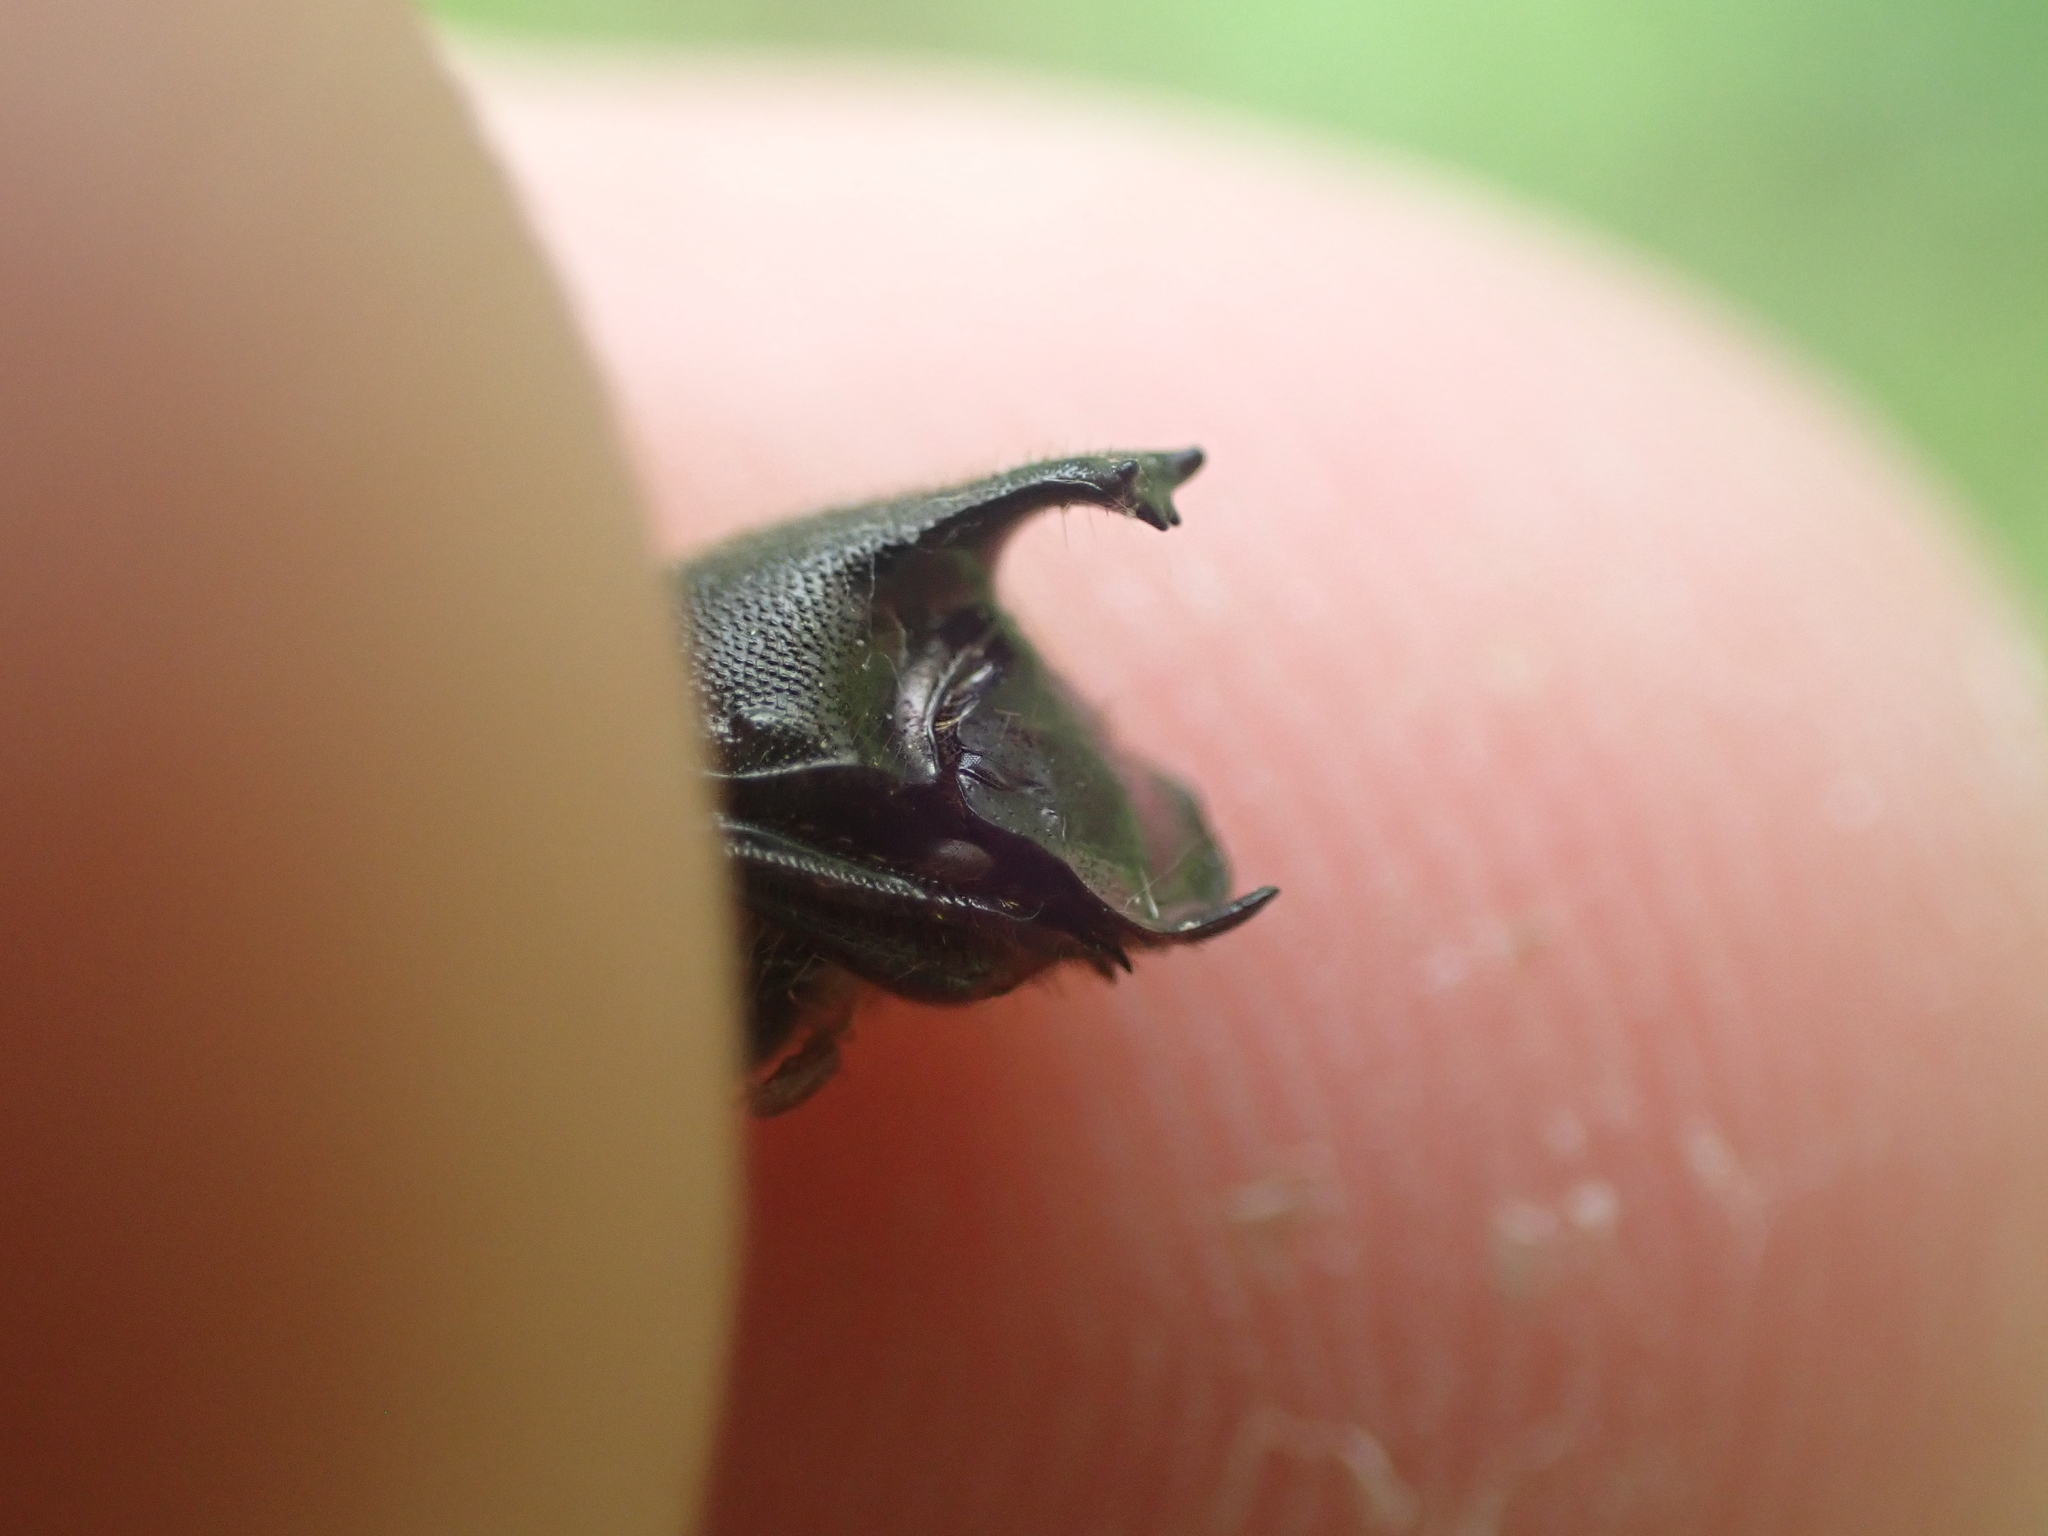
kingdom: Animalia
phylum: Arthropoda
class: Insecta
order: Coleoptera
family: Scarabaeidae
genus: Onthophagus
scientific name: Onthophagus hecate
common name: Scooped scarab
